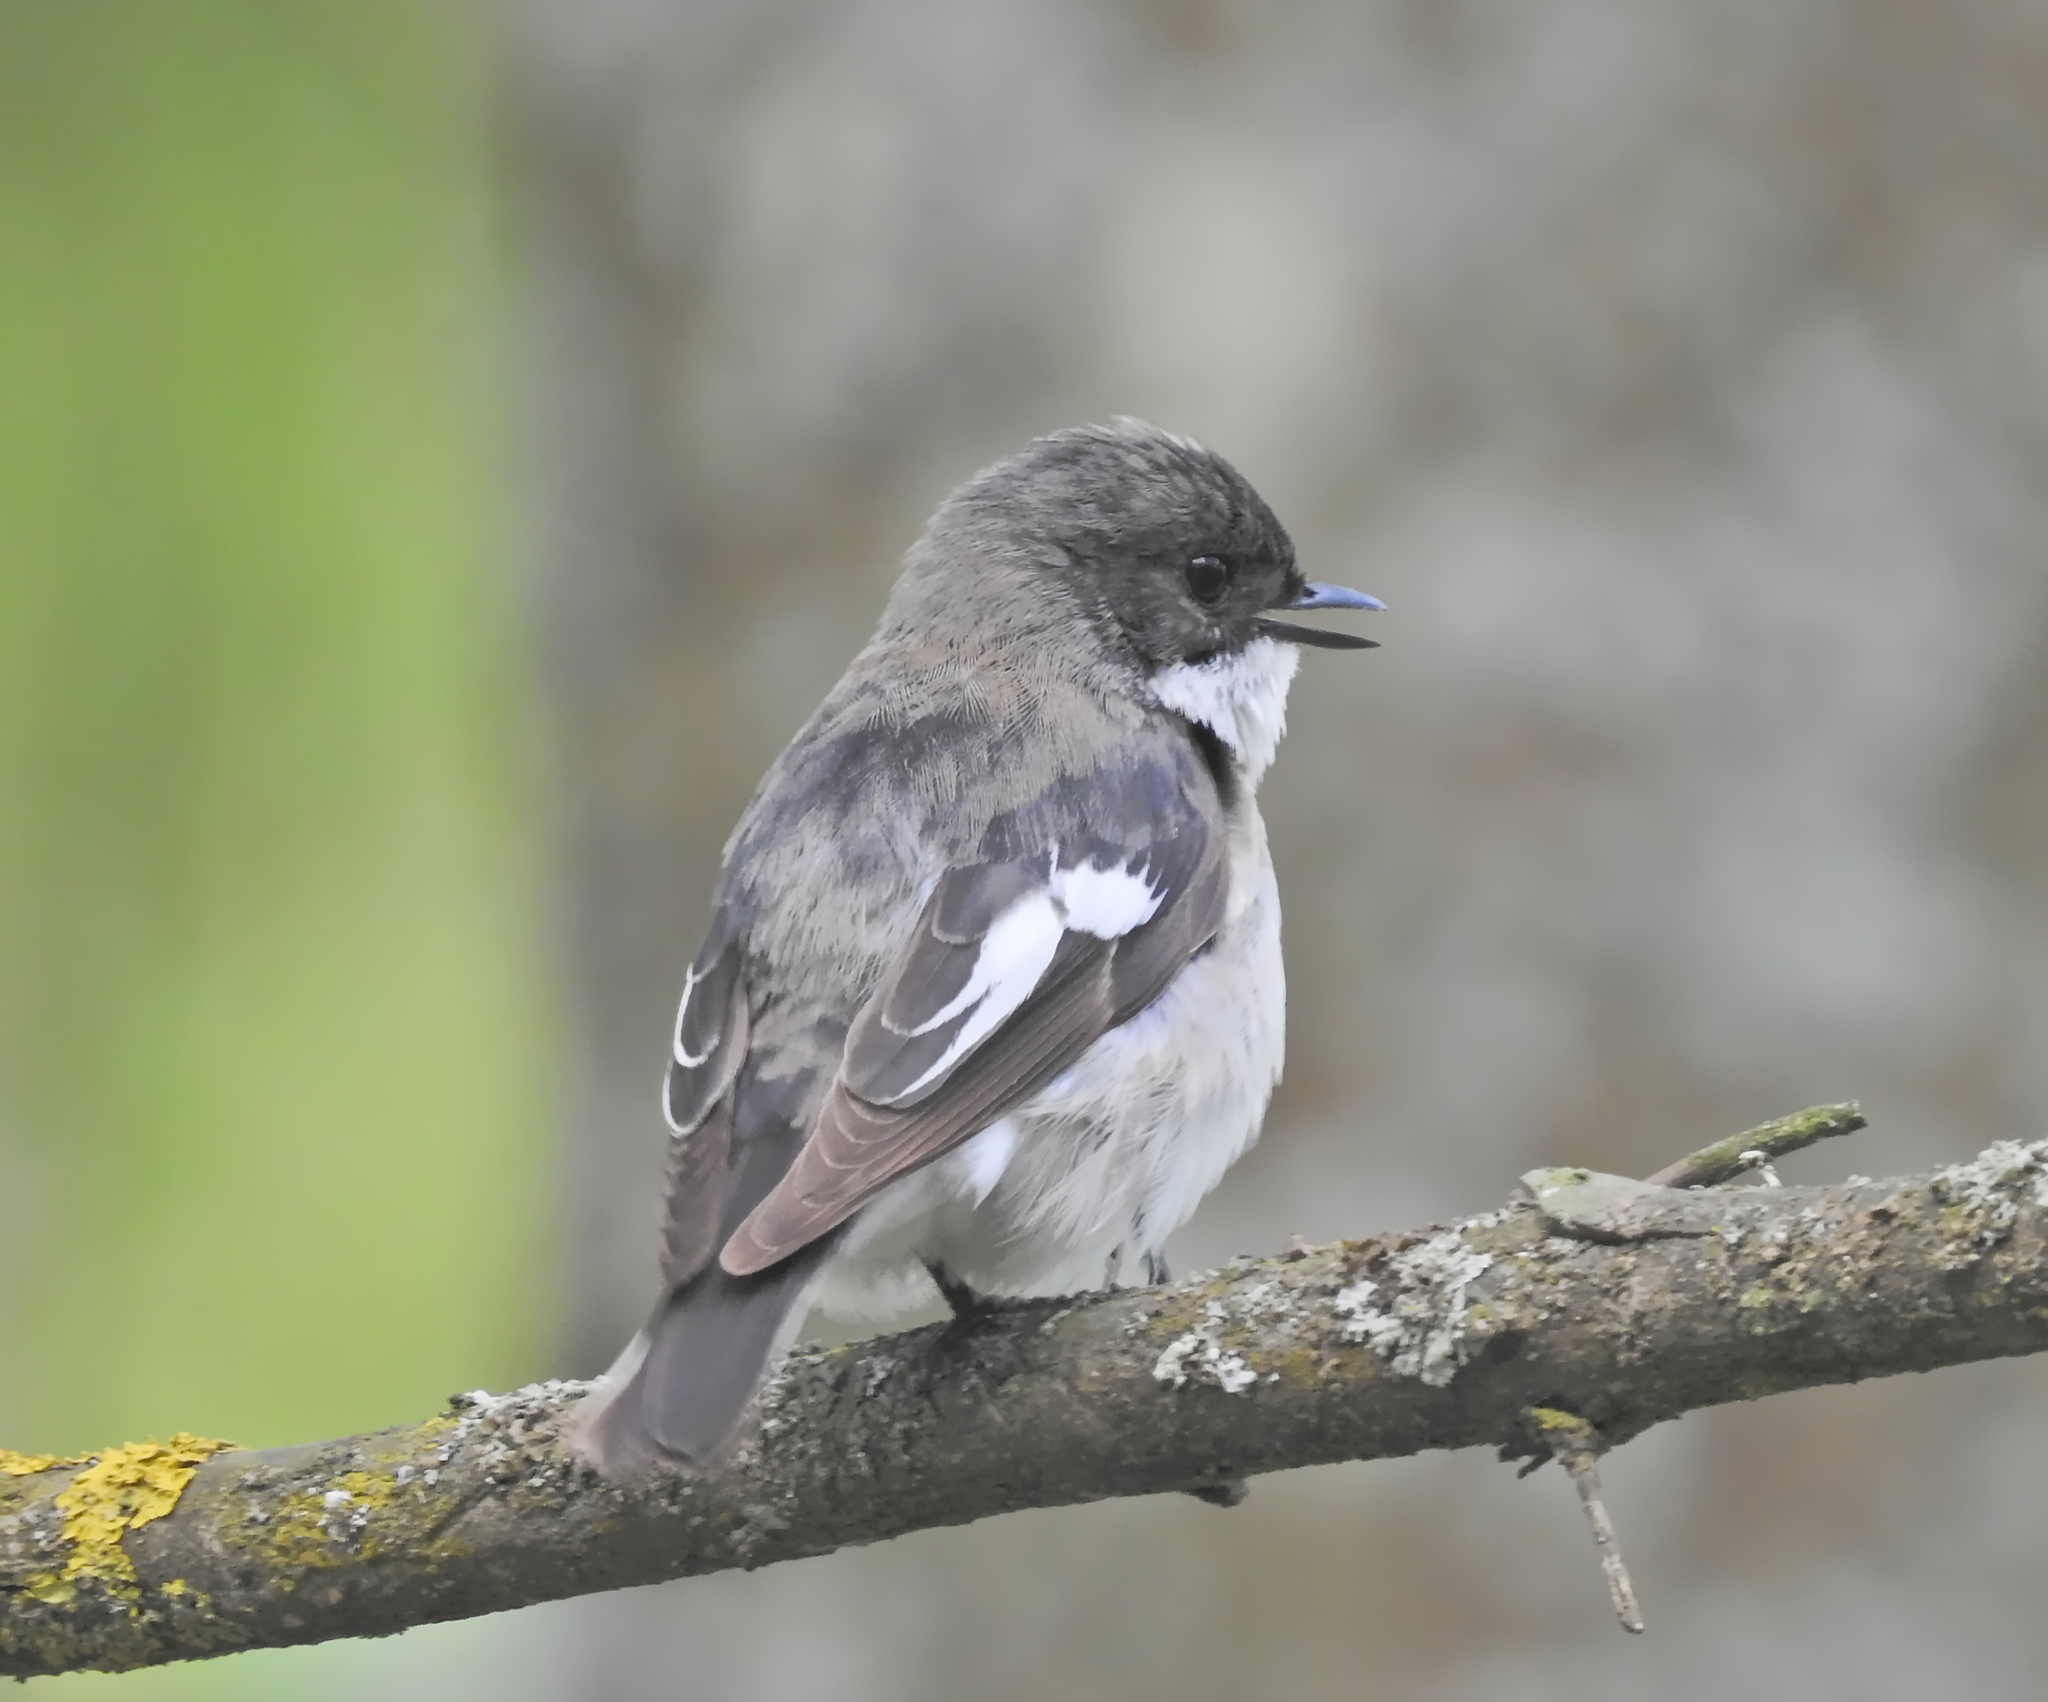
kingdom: Animalia
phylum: Chordata
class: Aves
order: Passeriformes
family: Muscicapidae
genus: Ficedula
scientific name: Ficedula hypoleuca
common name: European pied flycatcher
